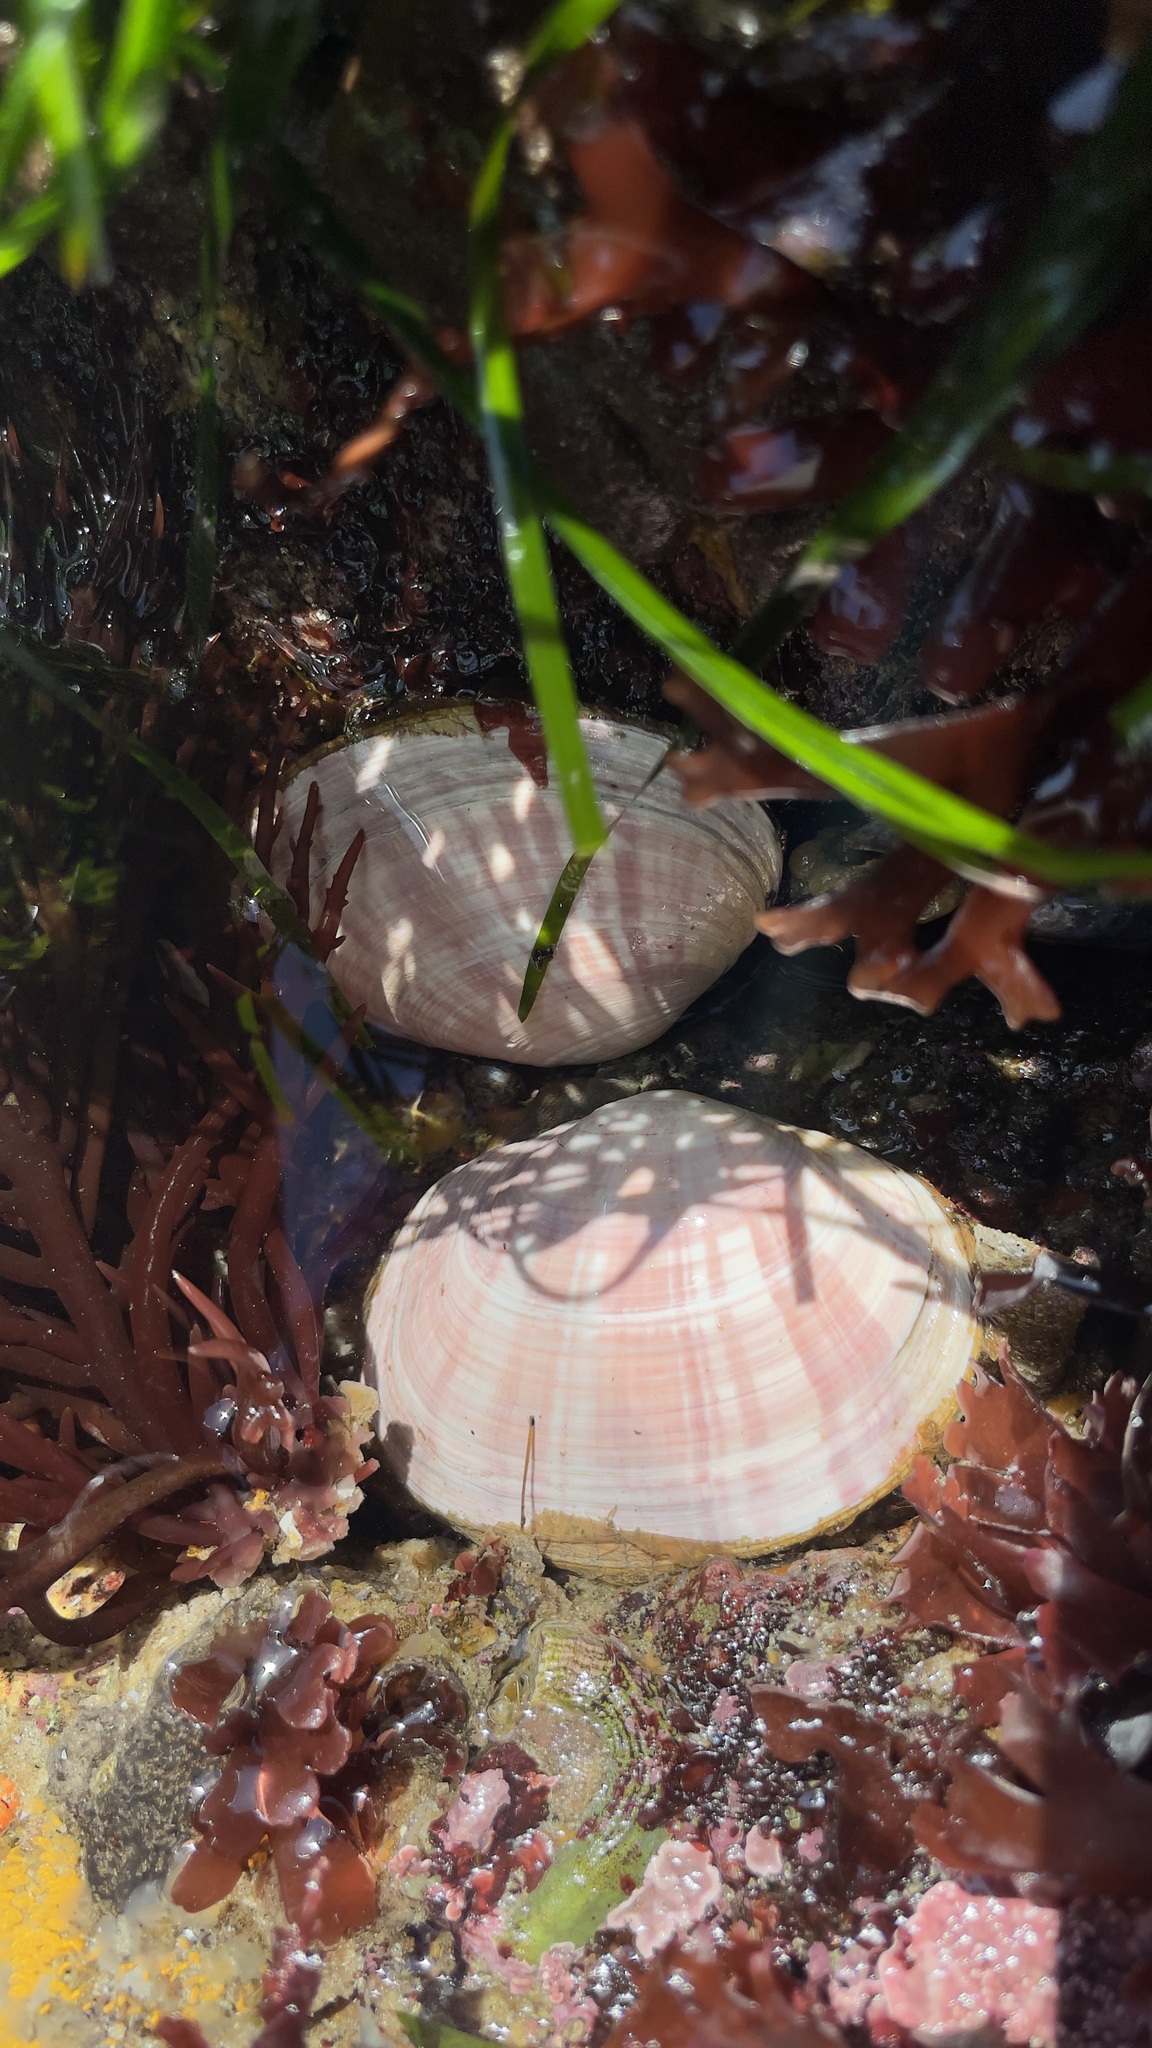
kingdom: Animalia
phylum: Mollusca
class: Bivalvia
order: Cardiida
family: Psammobiidae
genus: Gari
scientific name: Gari californica
